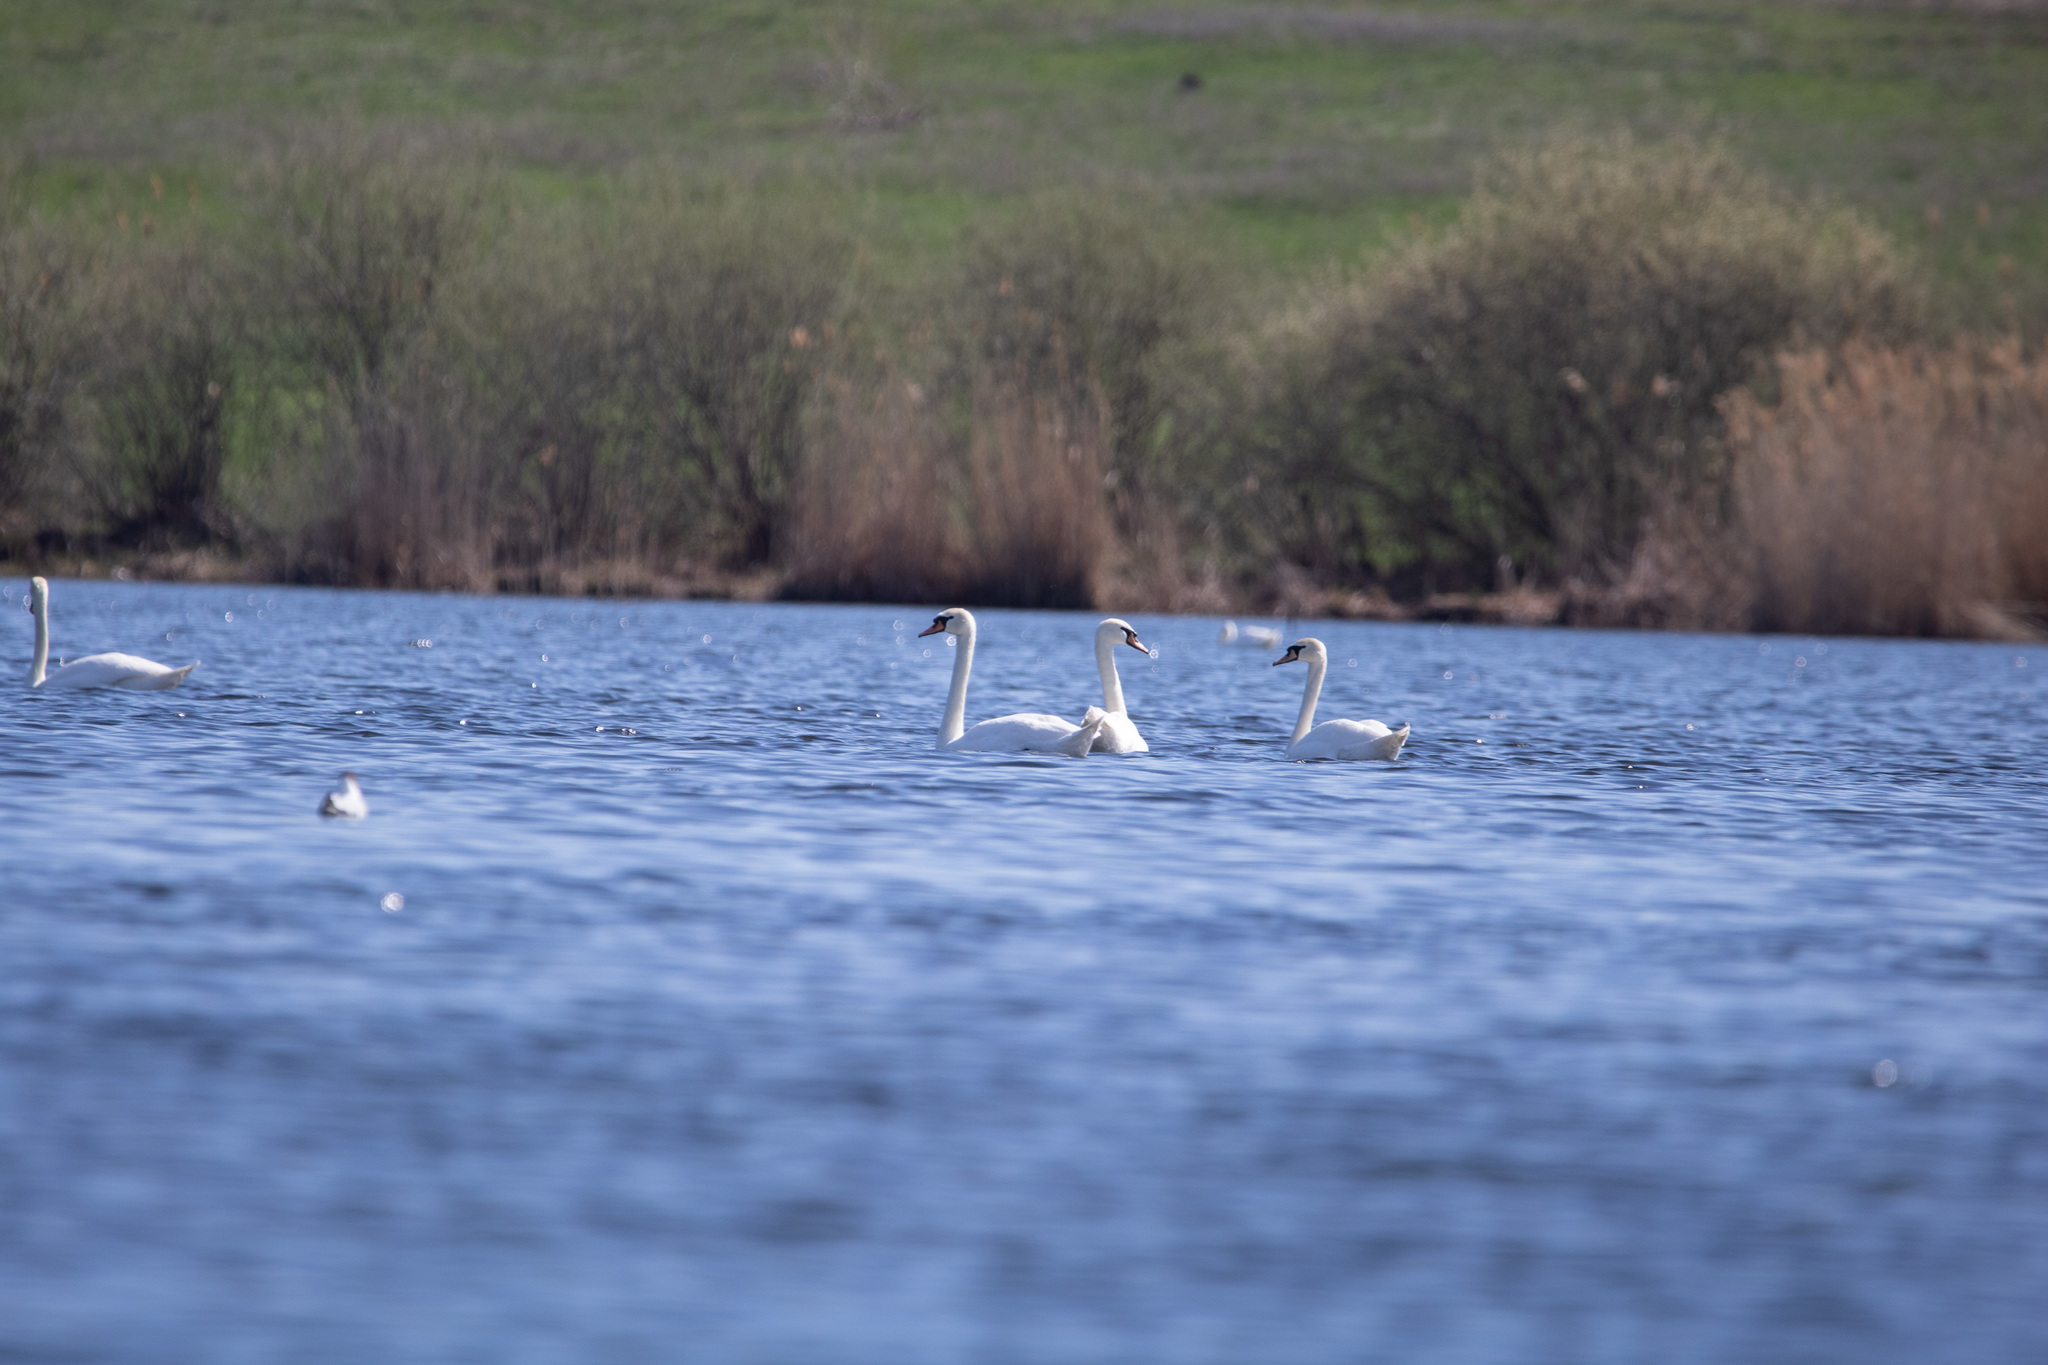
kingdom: Animalia
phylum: Chordata
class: Aves
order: Anseriformes
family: Anatidae
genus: Cygnus
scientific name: Cygnus olor
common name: Mute swan
